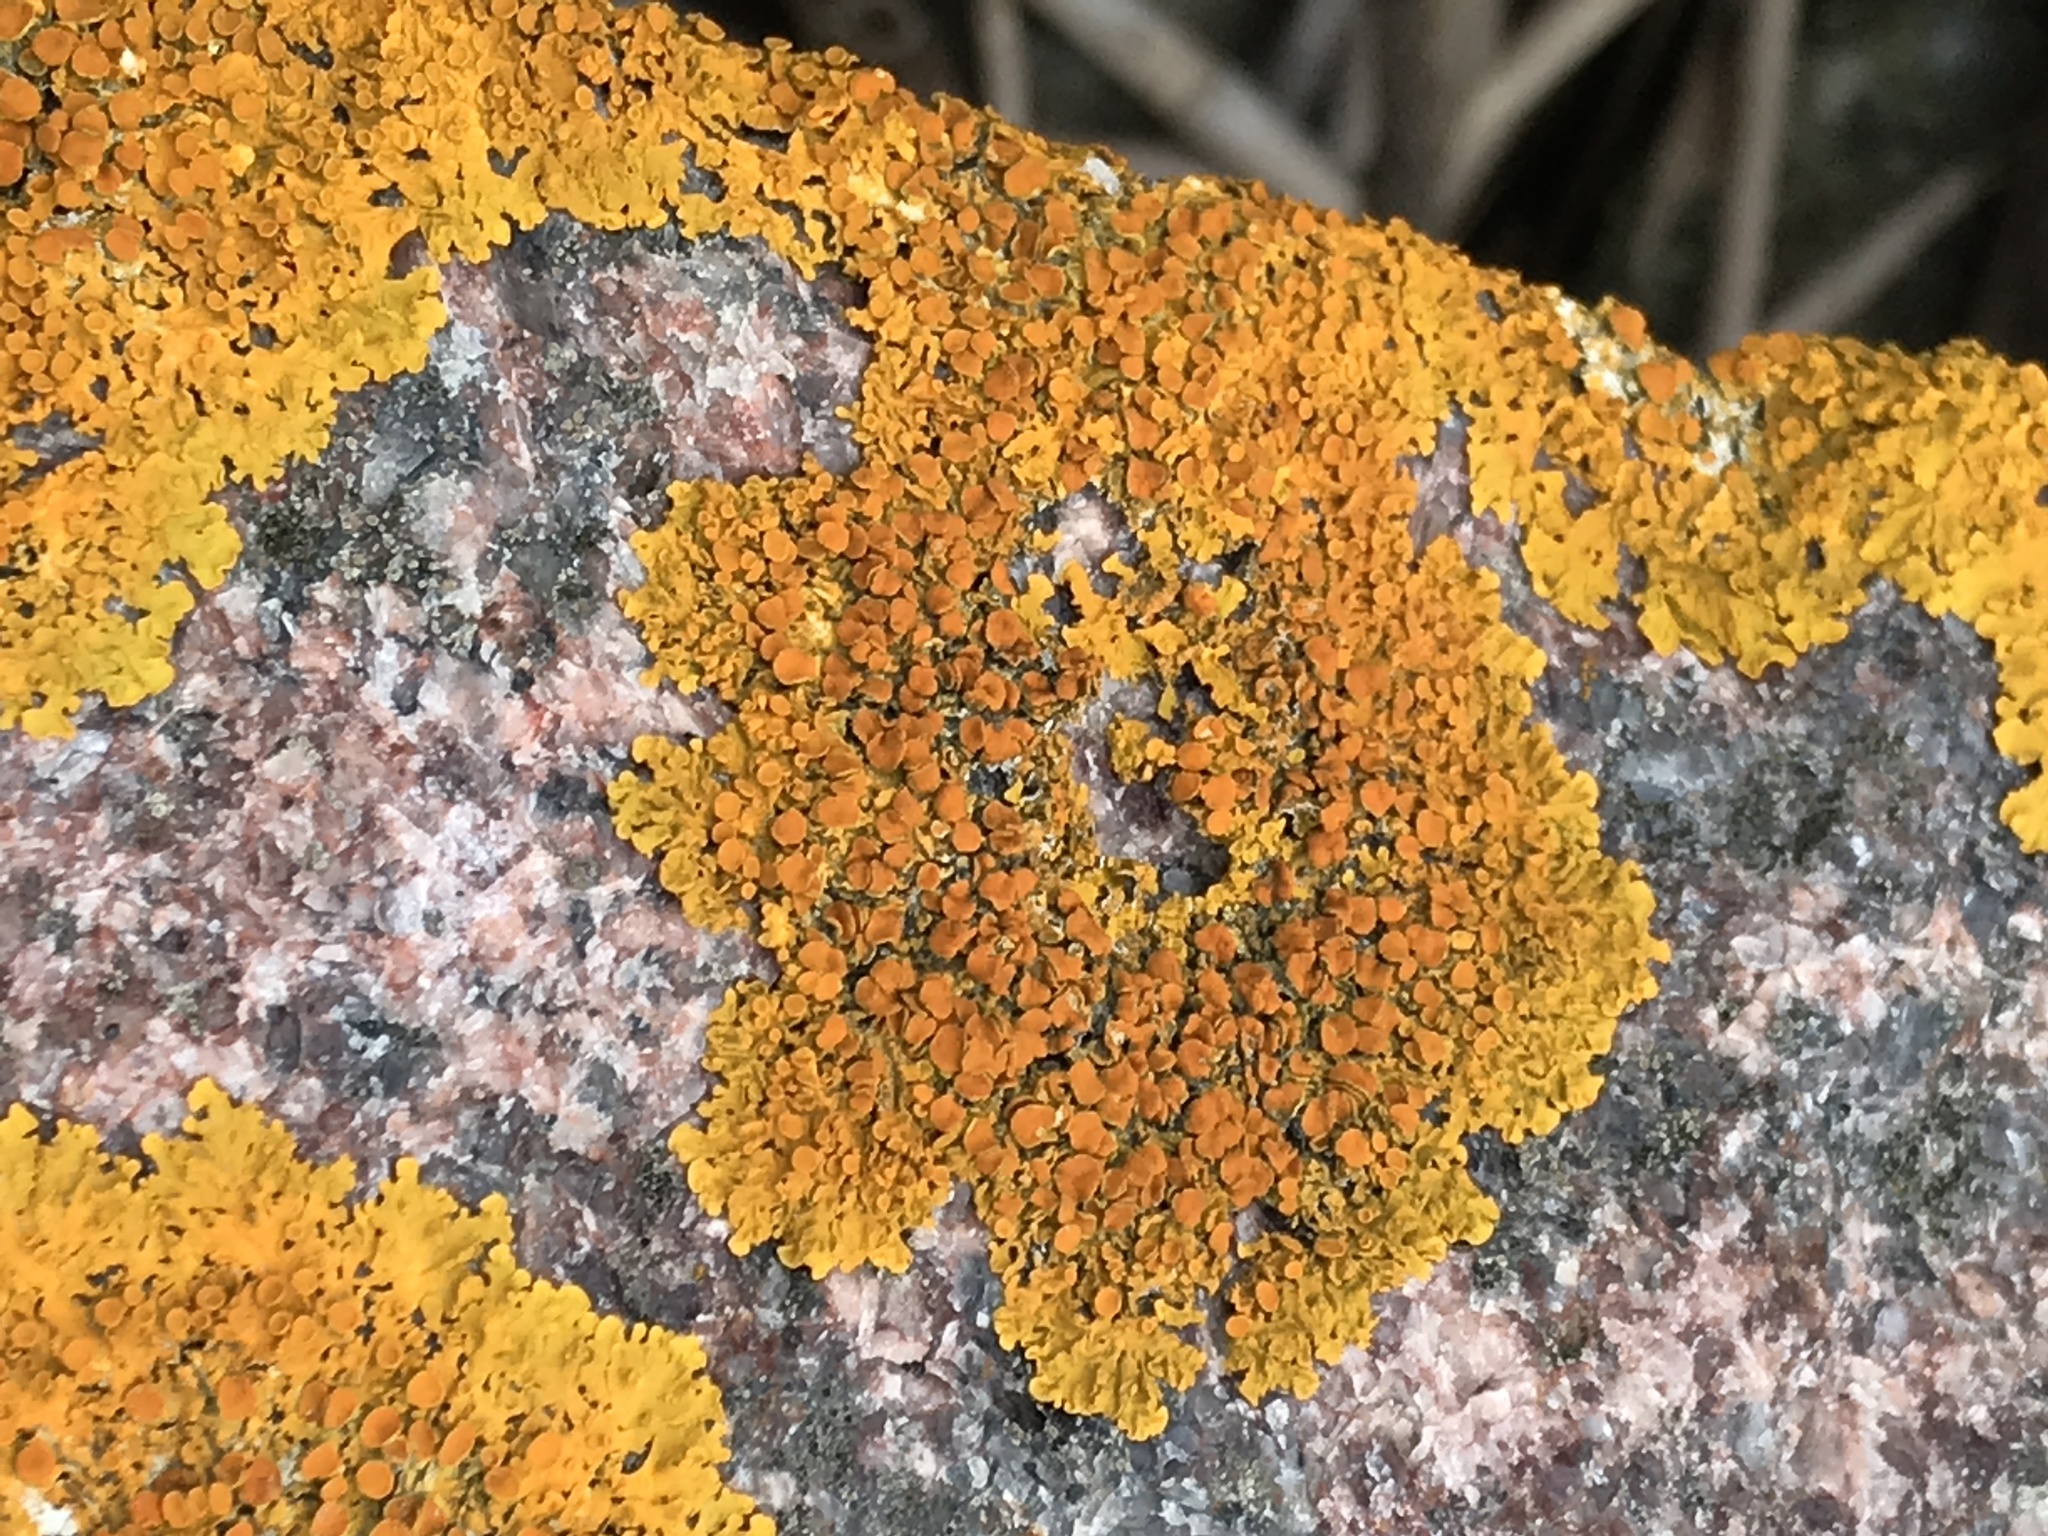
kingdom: Fungi
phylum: Ascomycota
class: Lecanoromycetes
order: Teloschistales
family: Teloschistaceae
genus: Xanthoria
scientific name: Xanthoria parietina
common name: Common orange lichen
